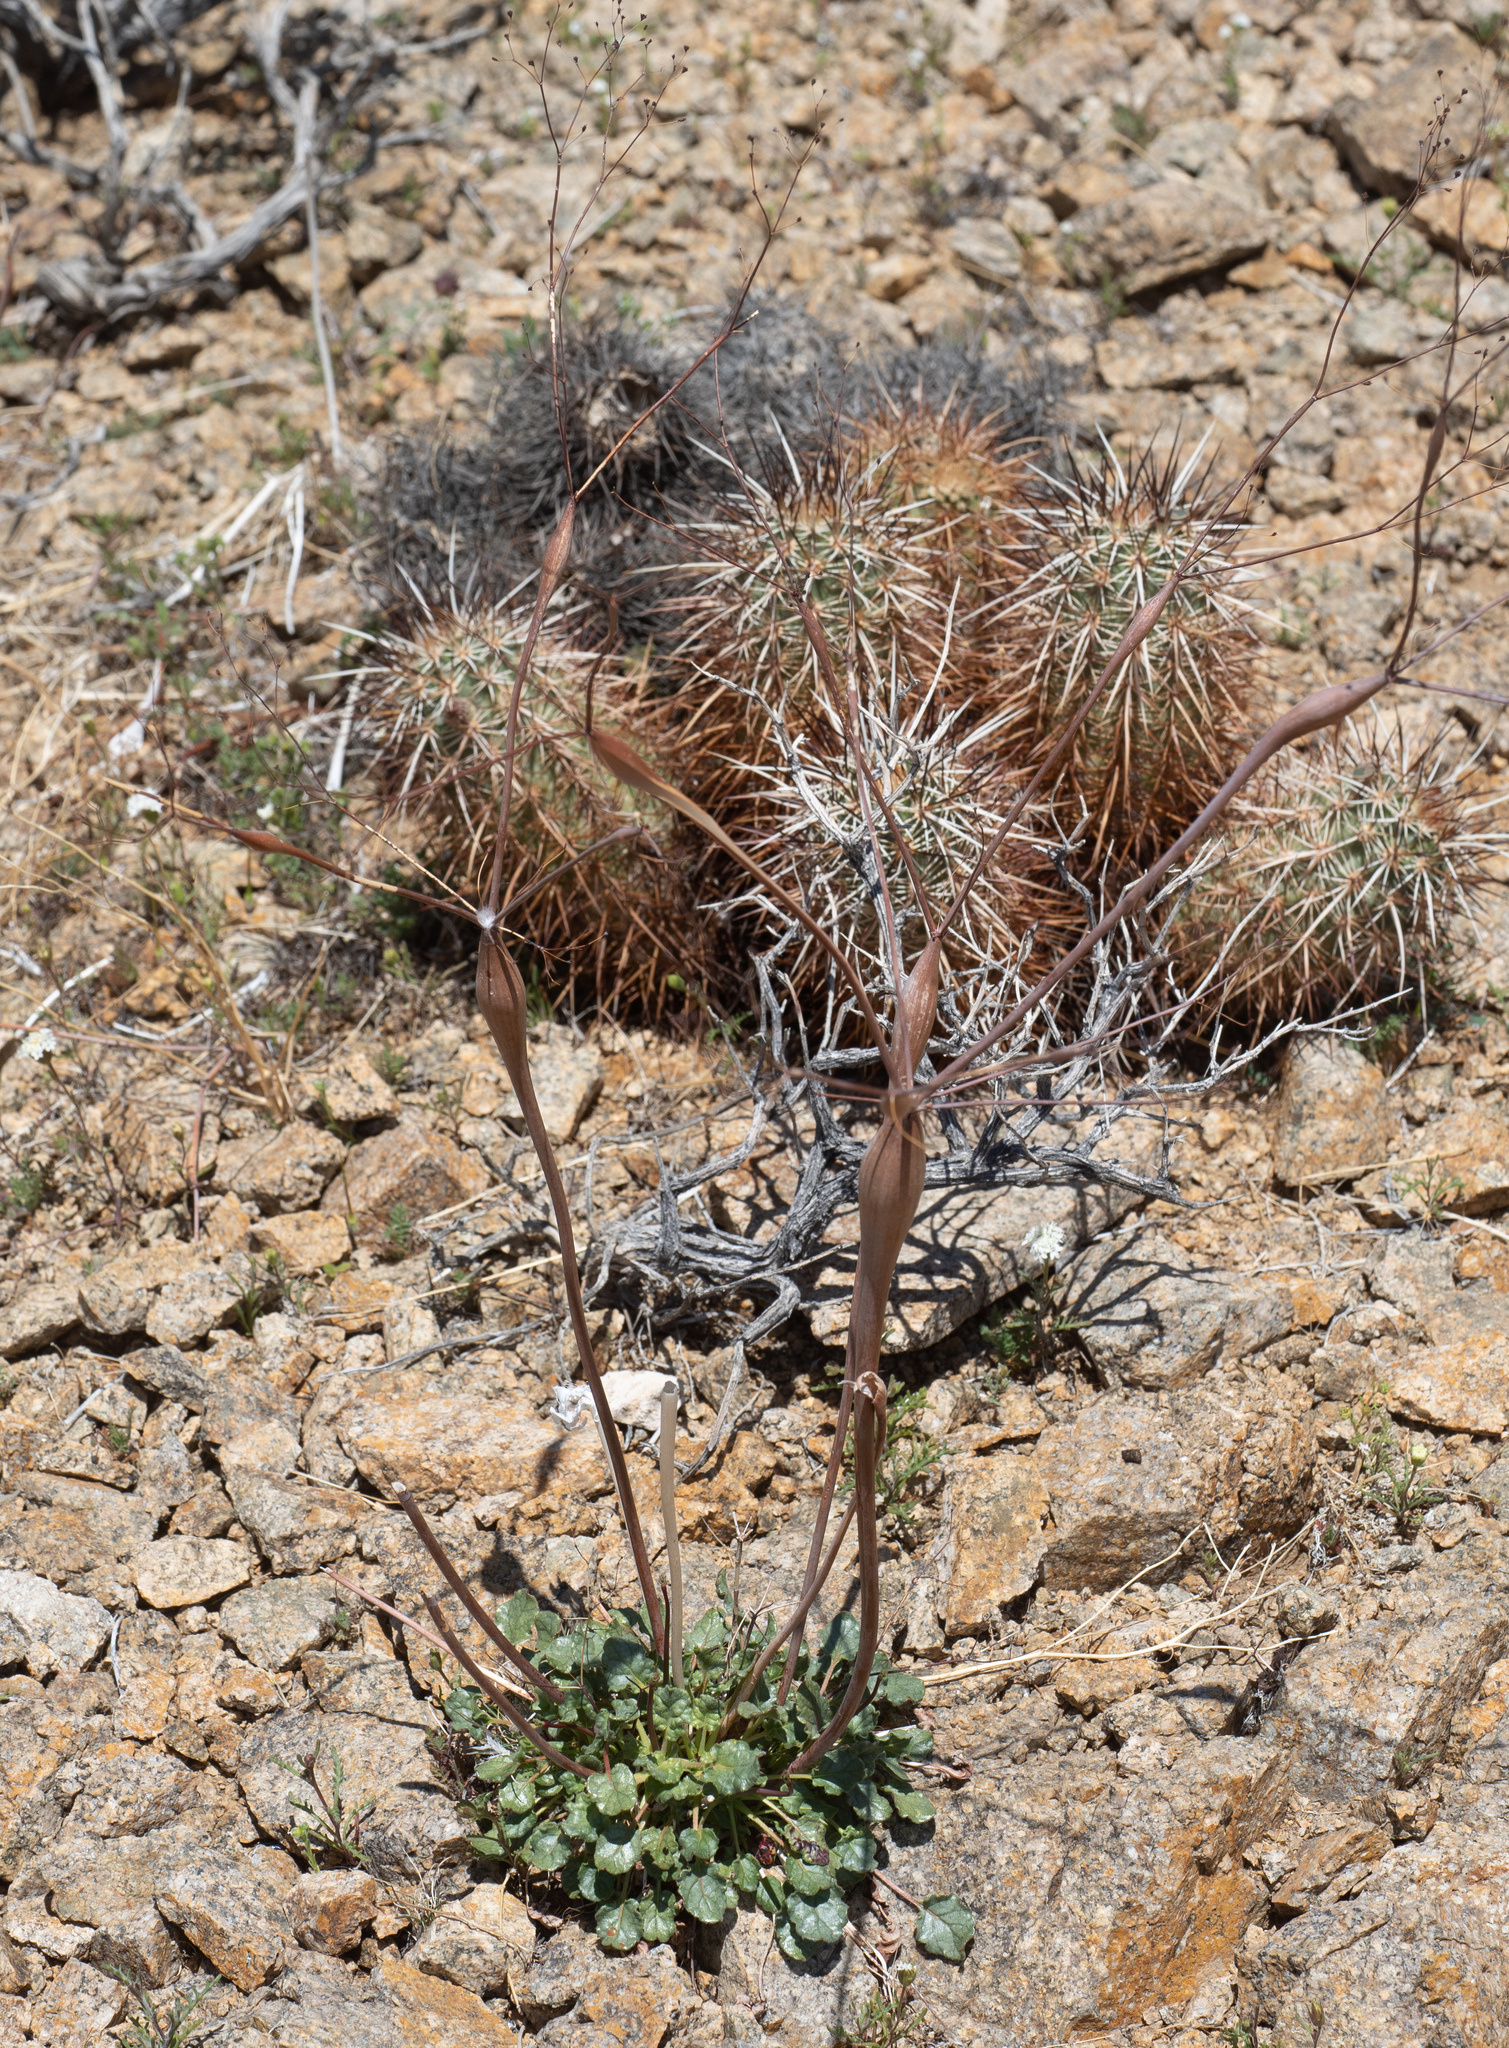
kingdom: Plantae
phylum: Tracheophyta
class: Magnoliopsida
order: Caryophyllales
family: Polygonaceae
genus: Eriogonum
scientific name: Eriogonum inflatum
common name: Desert trumpet
